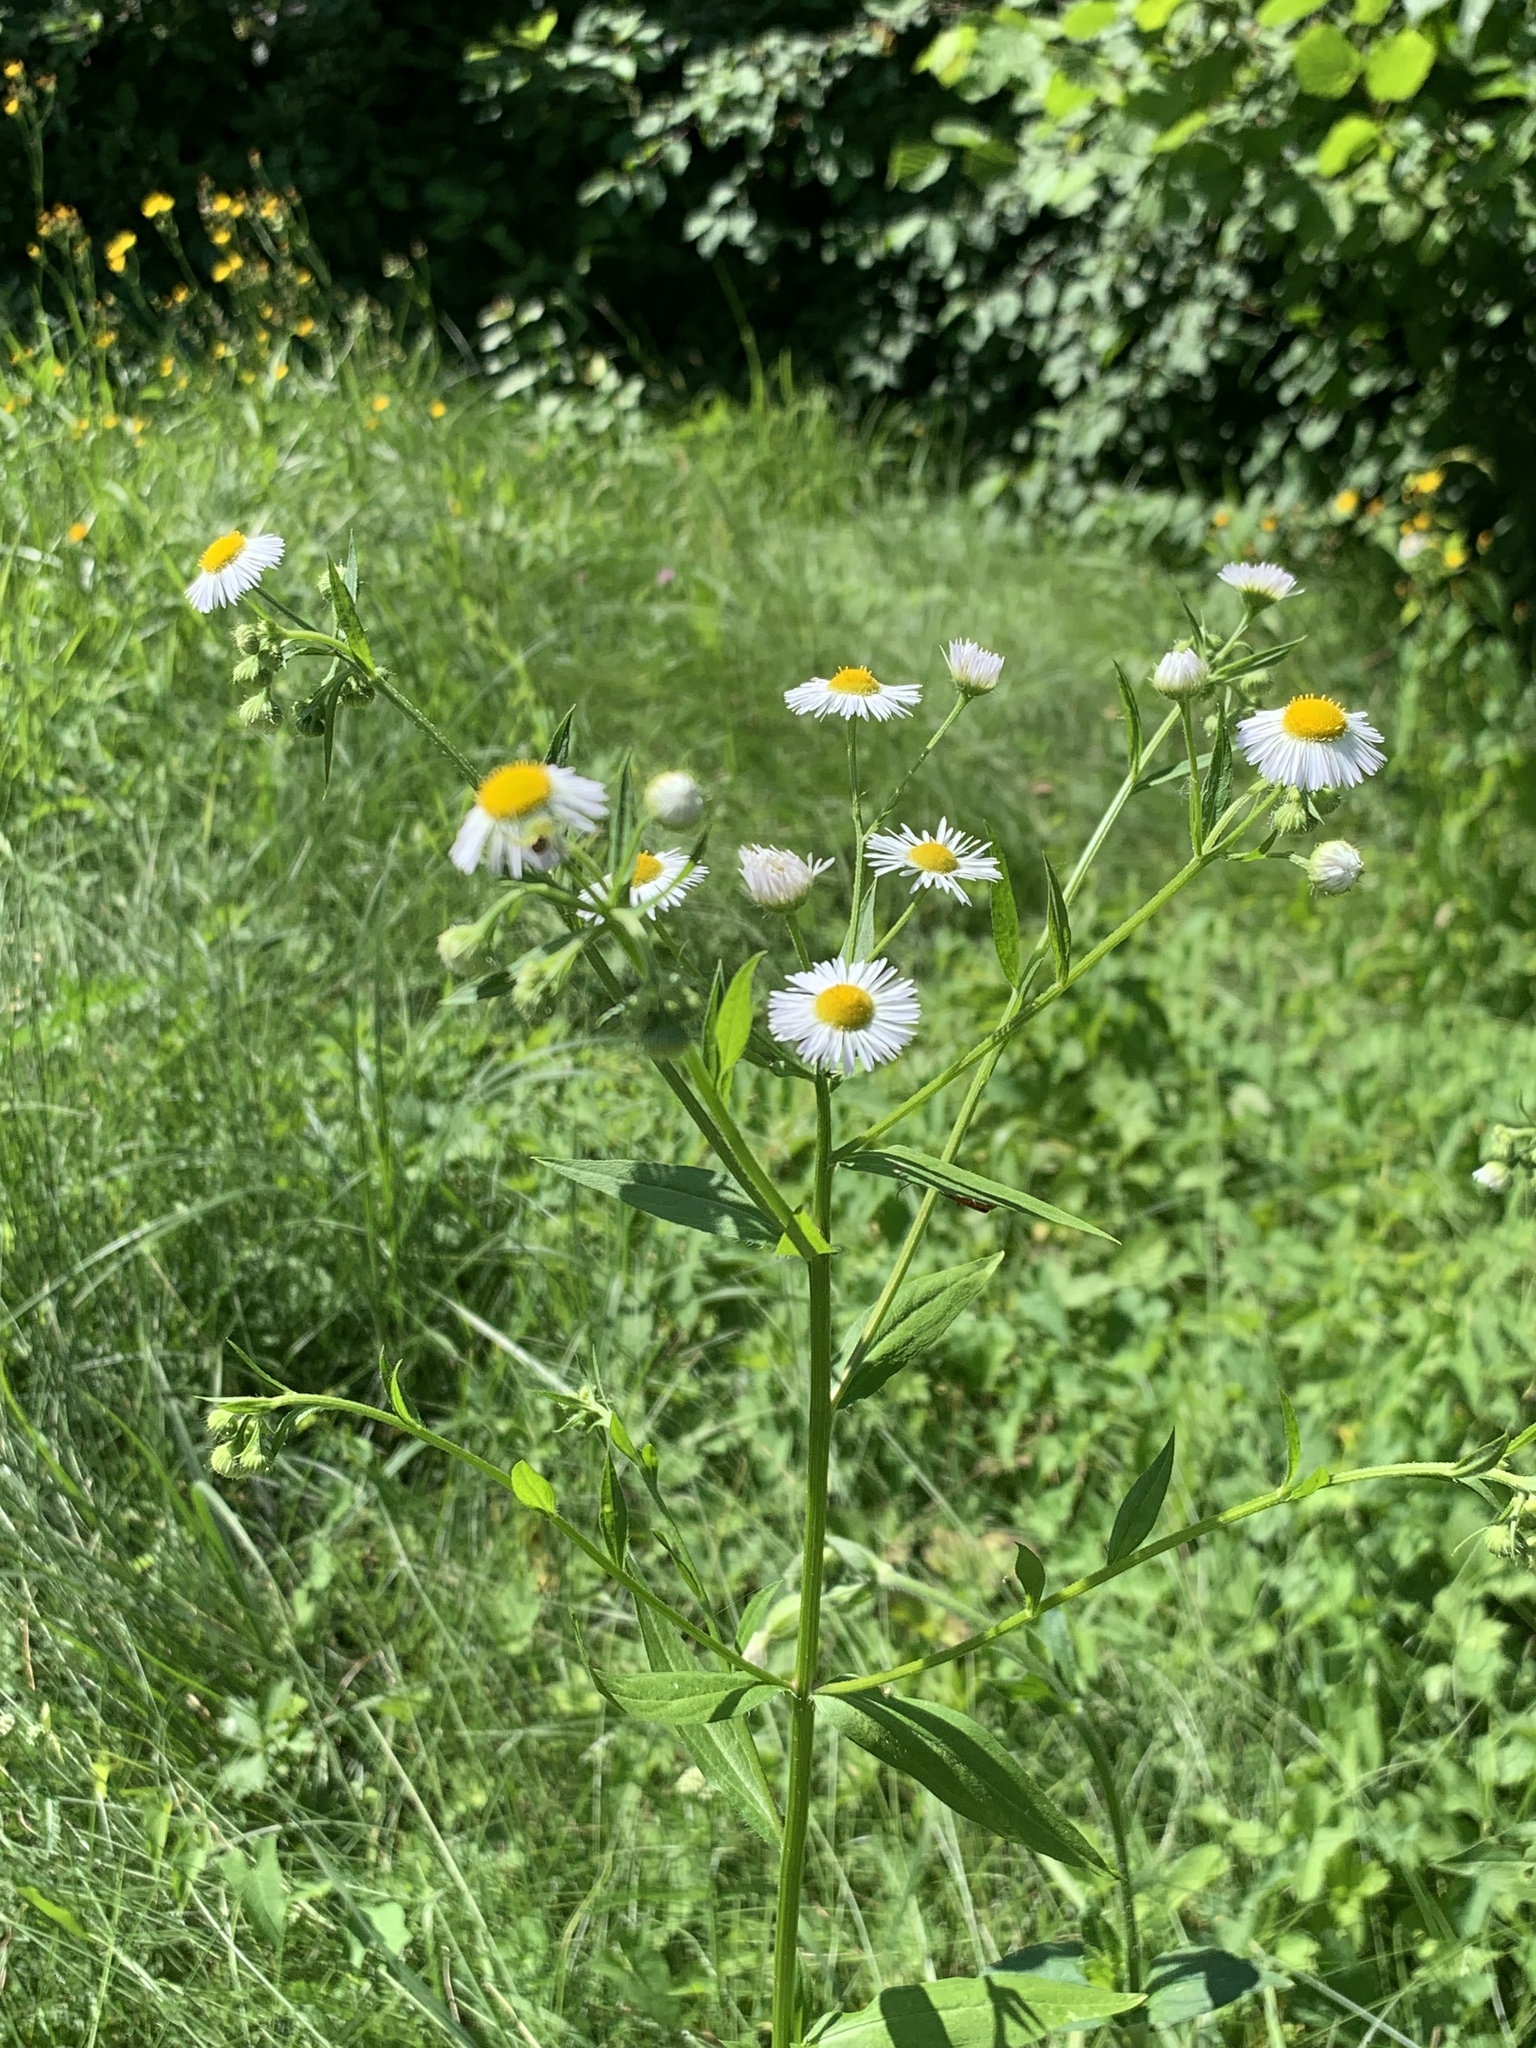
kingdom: Plantae
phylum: Tracheophyta
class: Magnoliopsida
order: Asterales
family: Asteraceae
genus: Erigeron
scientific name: Erigeron annuus
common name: Tall fleabane
